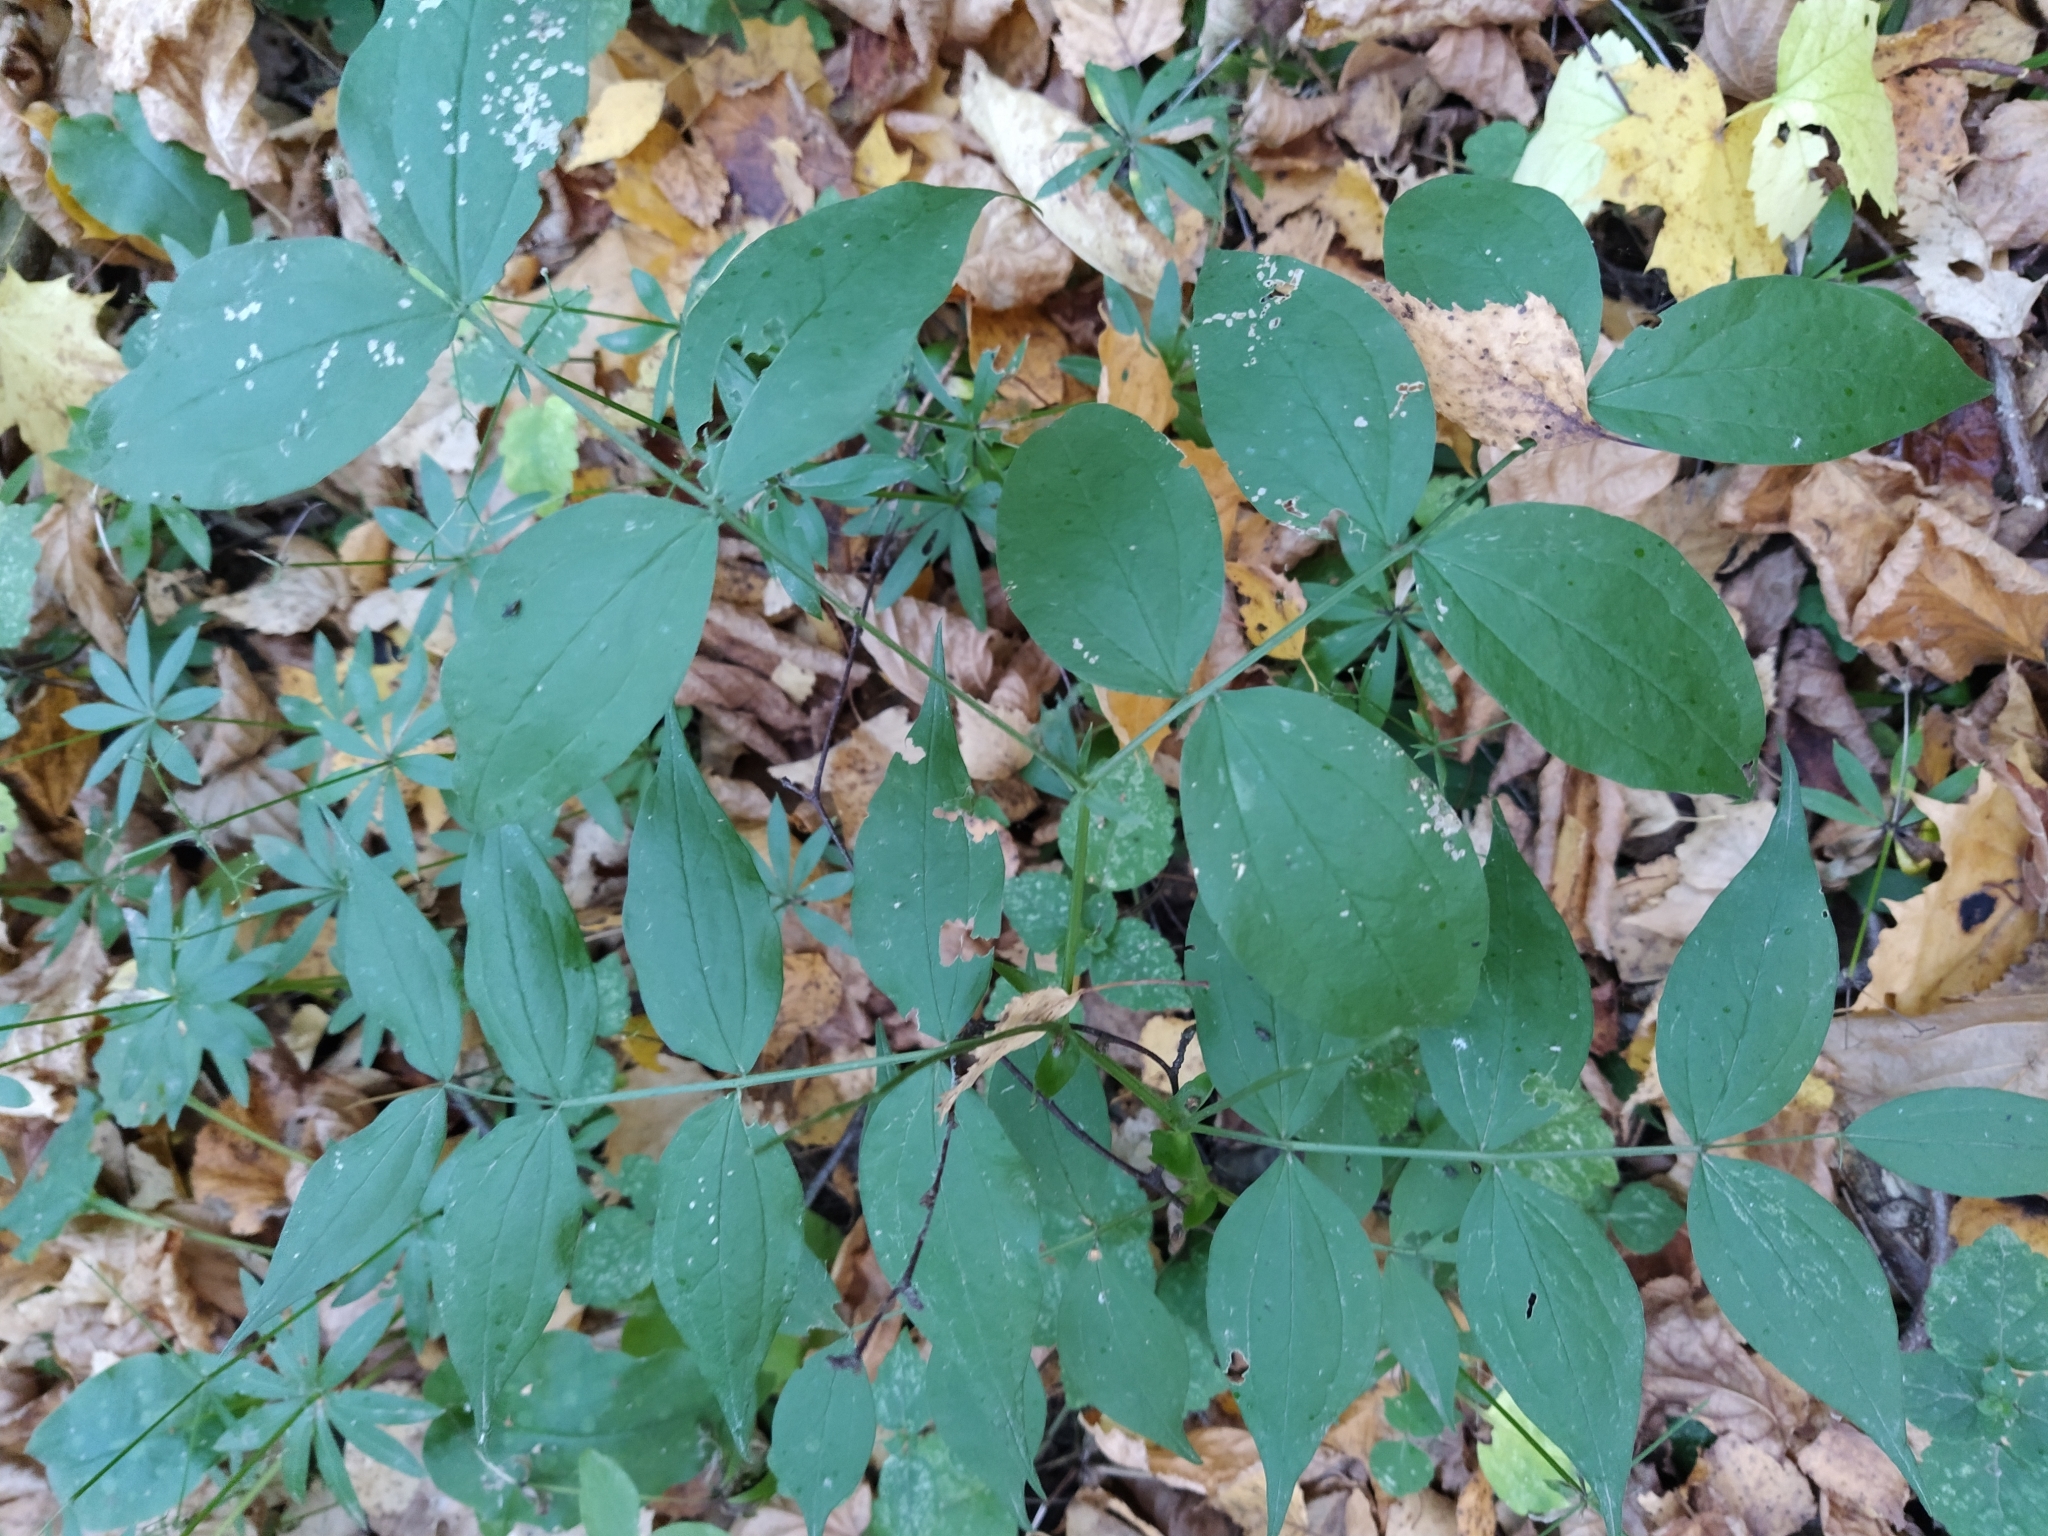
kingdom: Plantae
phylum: Tracheophyta
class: Magnoliopsida
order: Fabales
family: Fabaceae
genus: Lathyrus
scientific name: Lathyrus vernus
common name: Spring pea
